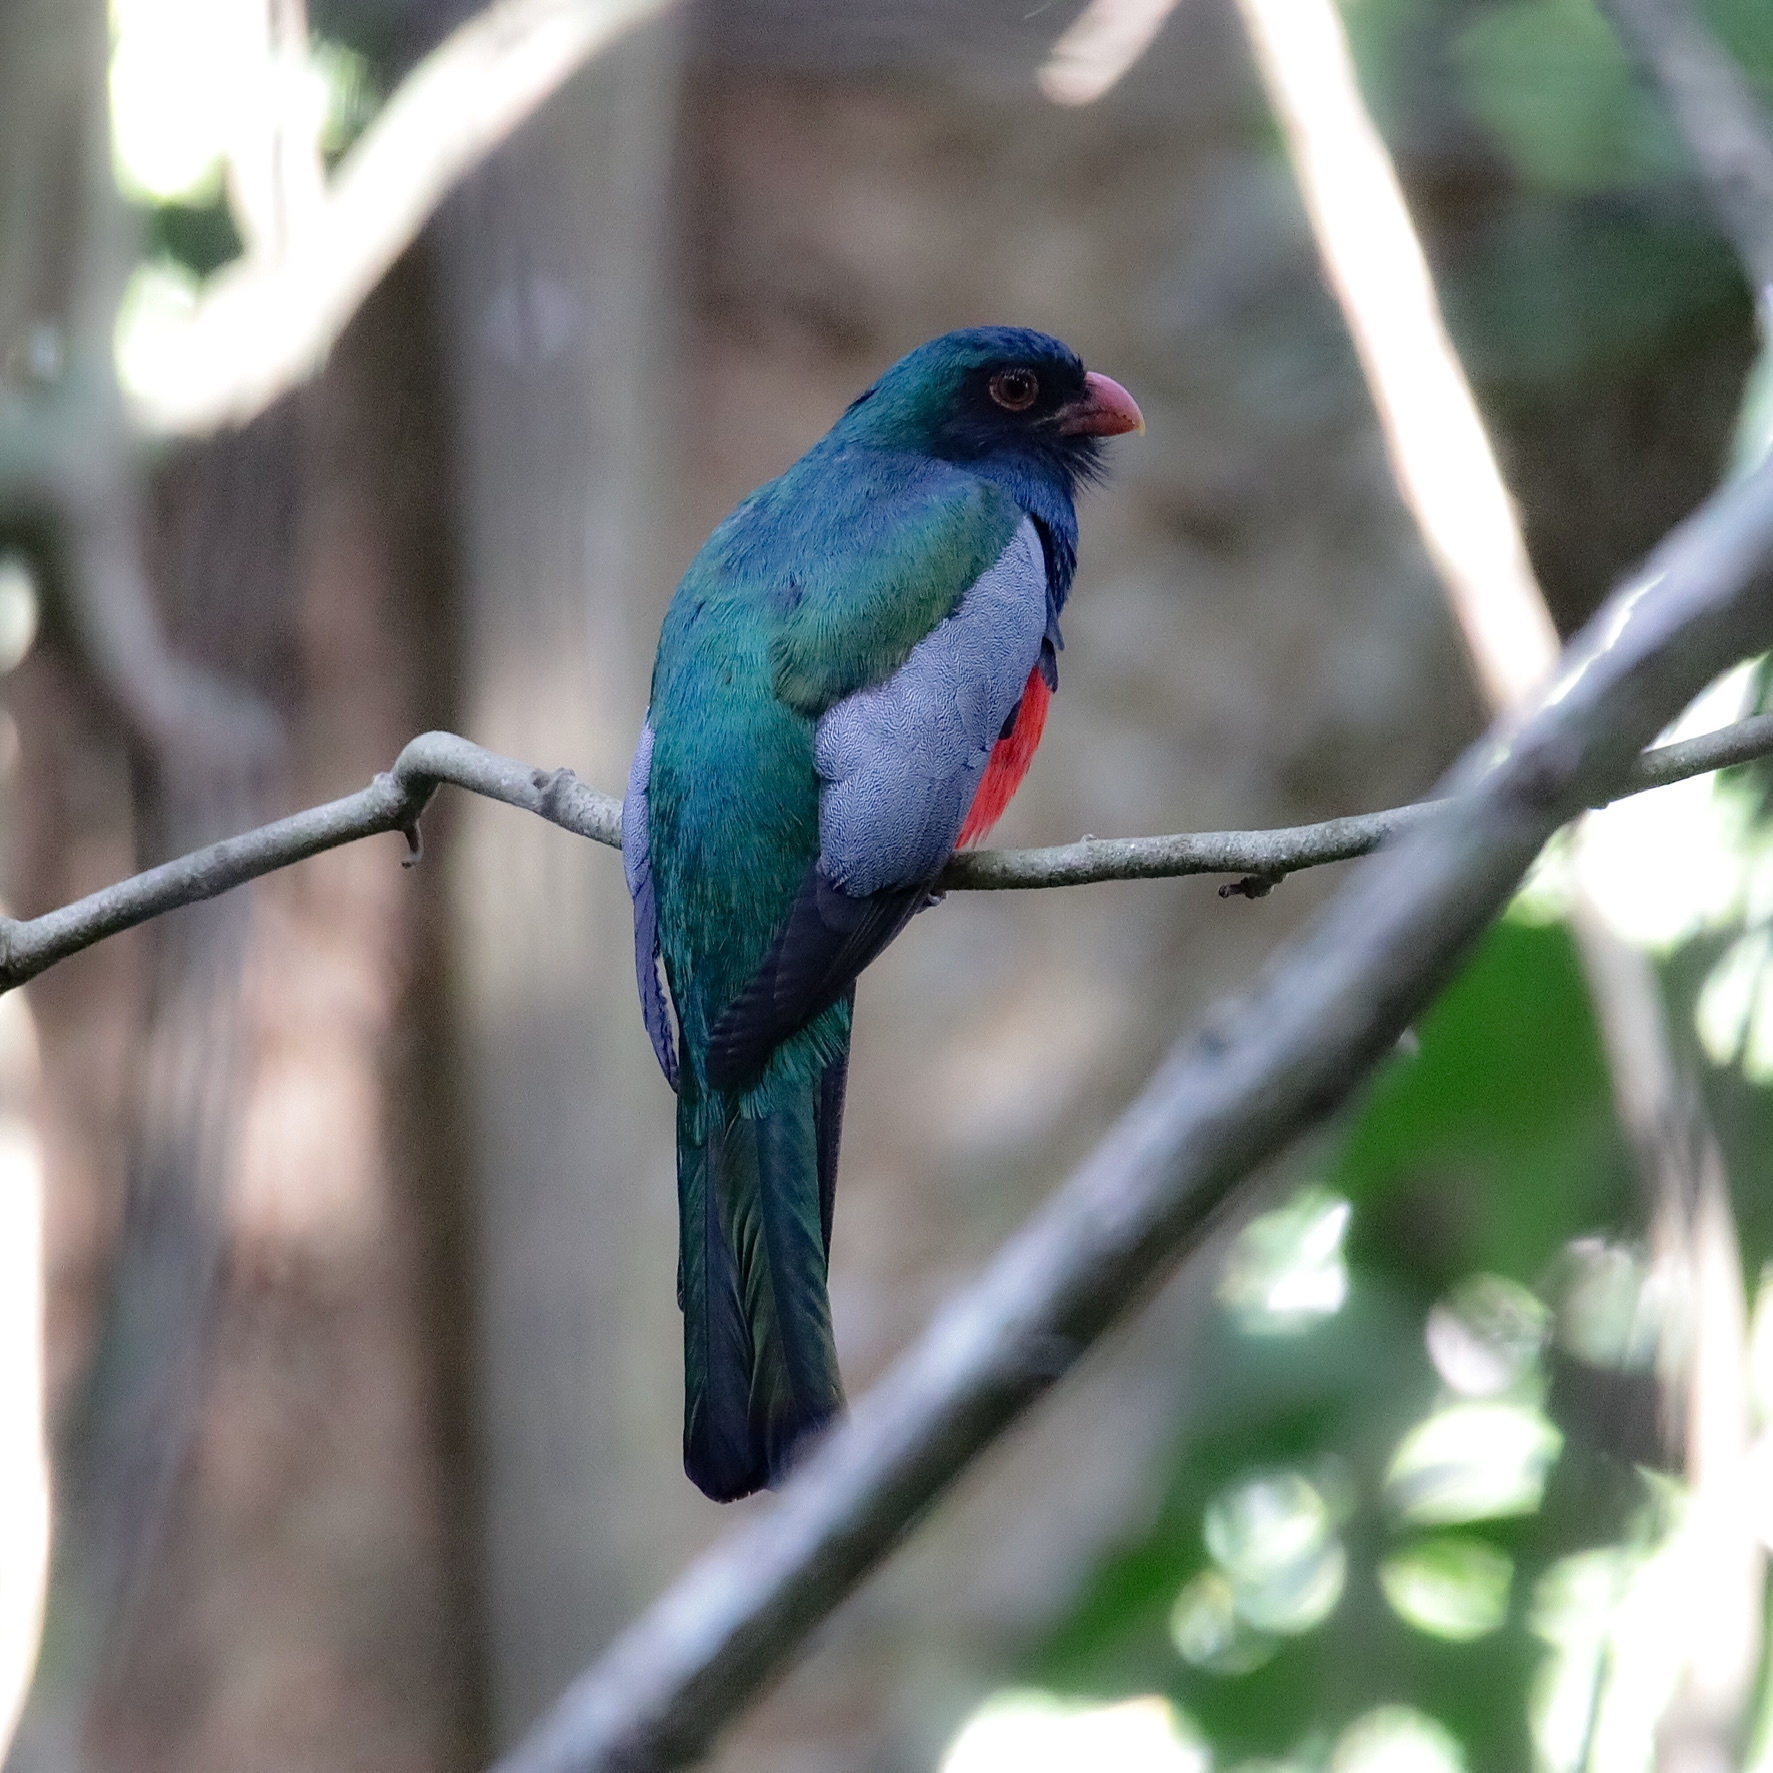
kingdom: Animalia
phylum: Chordata
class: Aves
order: Trogoniformes
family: Trogonidae
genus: Trogon
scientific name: Trogon massena
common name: Slaty-tailed trogon
